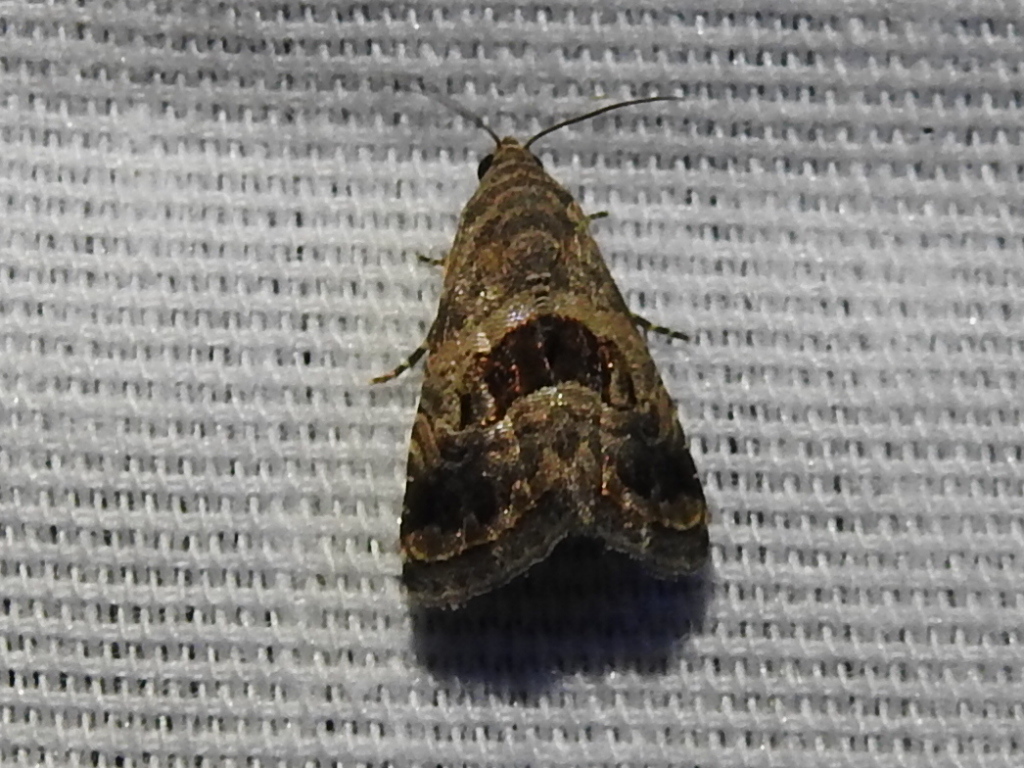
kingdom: Animalia
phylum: Arthropoda
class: Insecta
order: Lepidoptera
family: Noctuidae
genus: Tripudia
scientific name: Tripudia quadrifera
